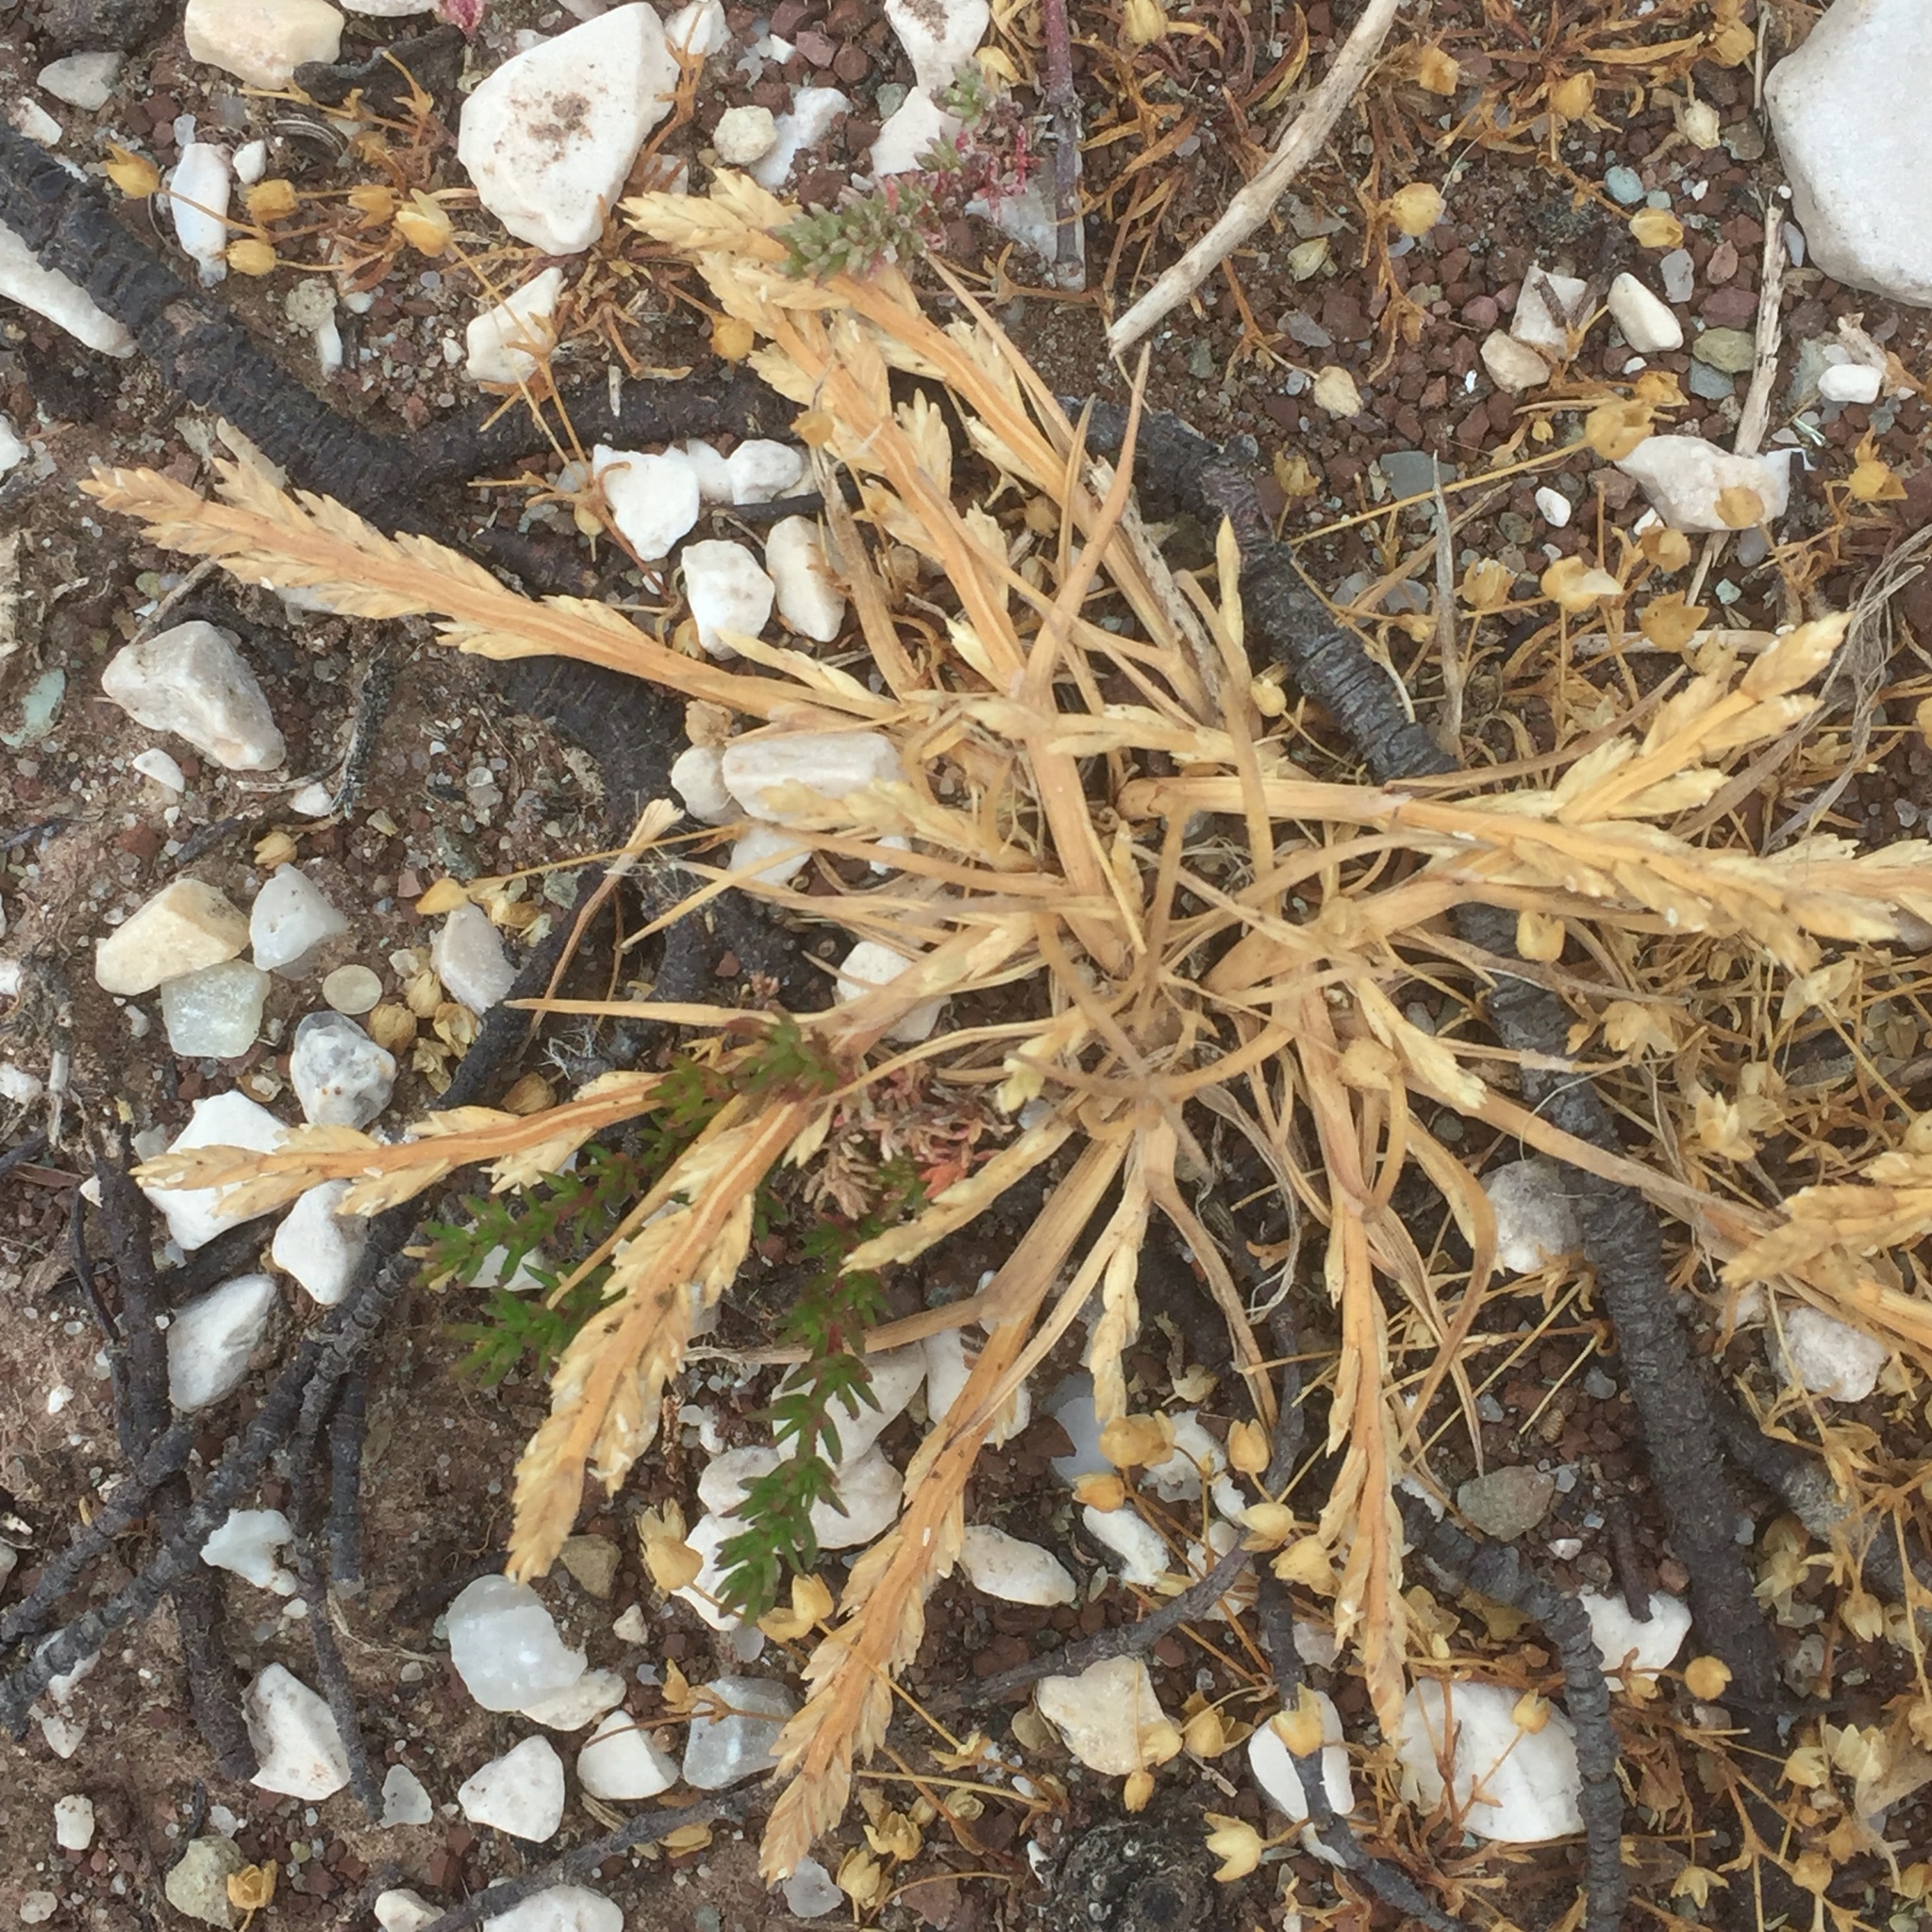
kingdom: Plantae
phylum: Tracheophyta
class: Liliopsida
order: Poales
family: Poaceae
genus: Catapodium
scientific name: Catapodium marinum
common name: Sea fern-grass
